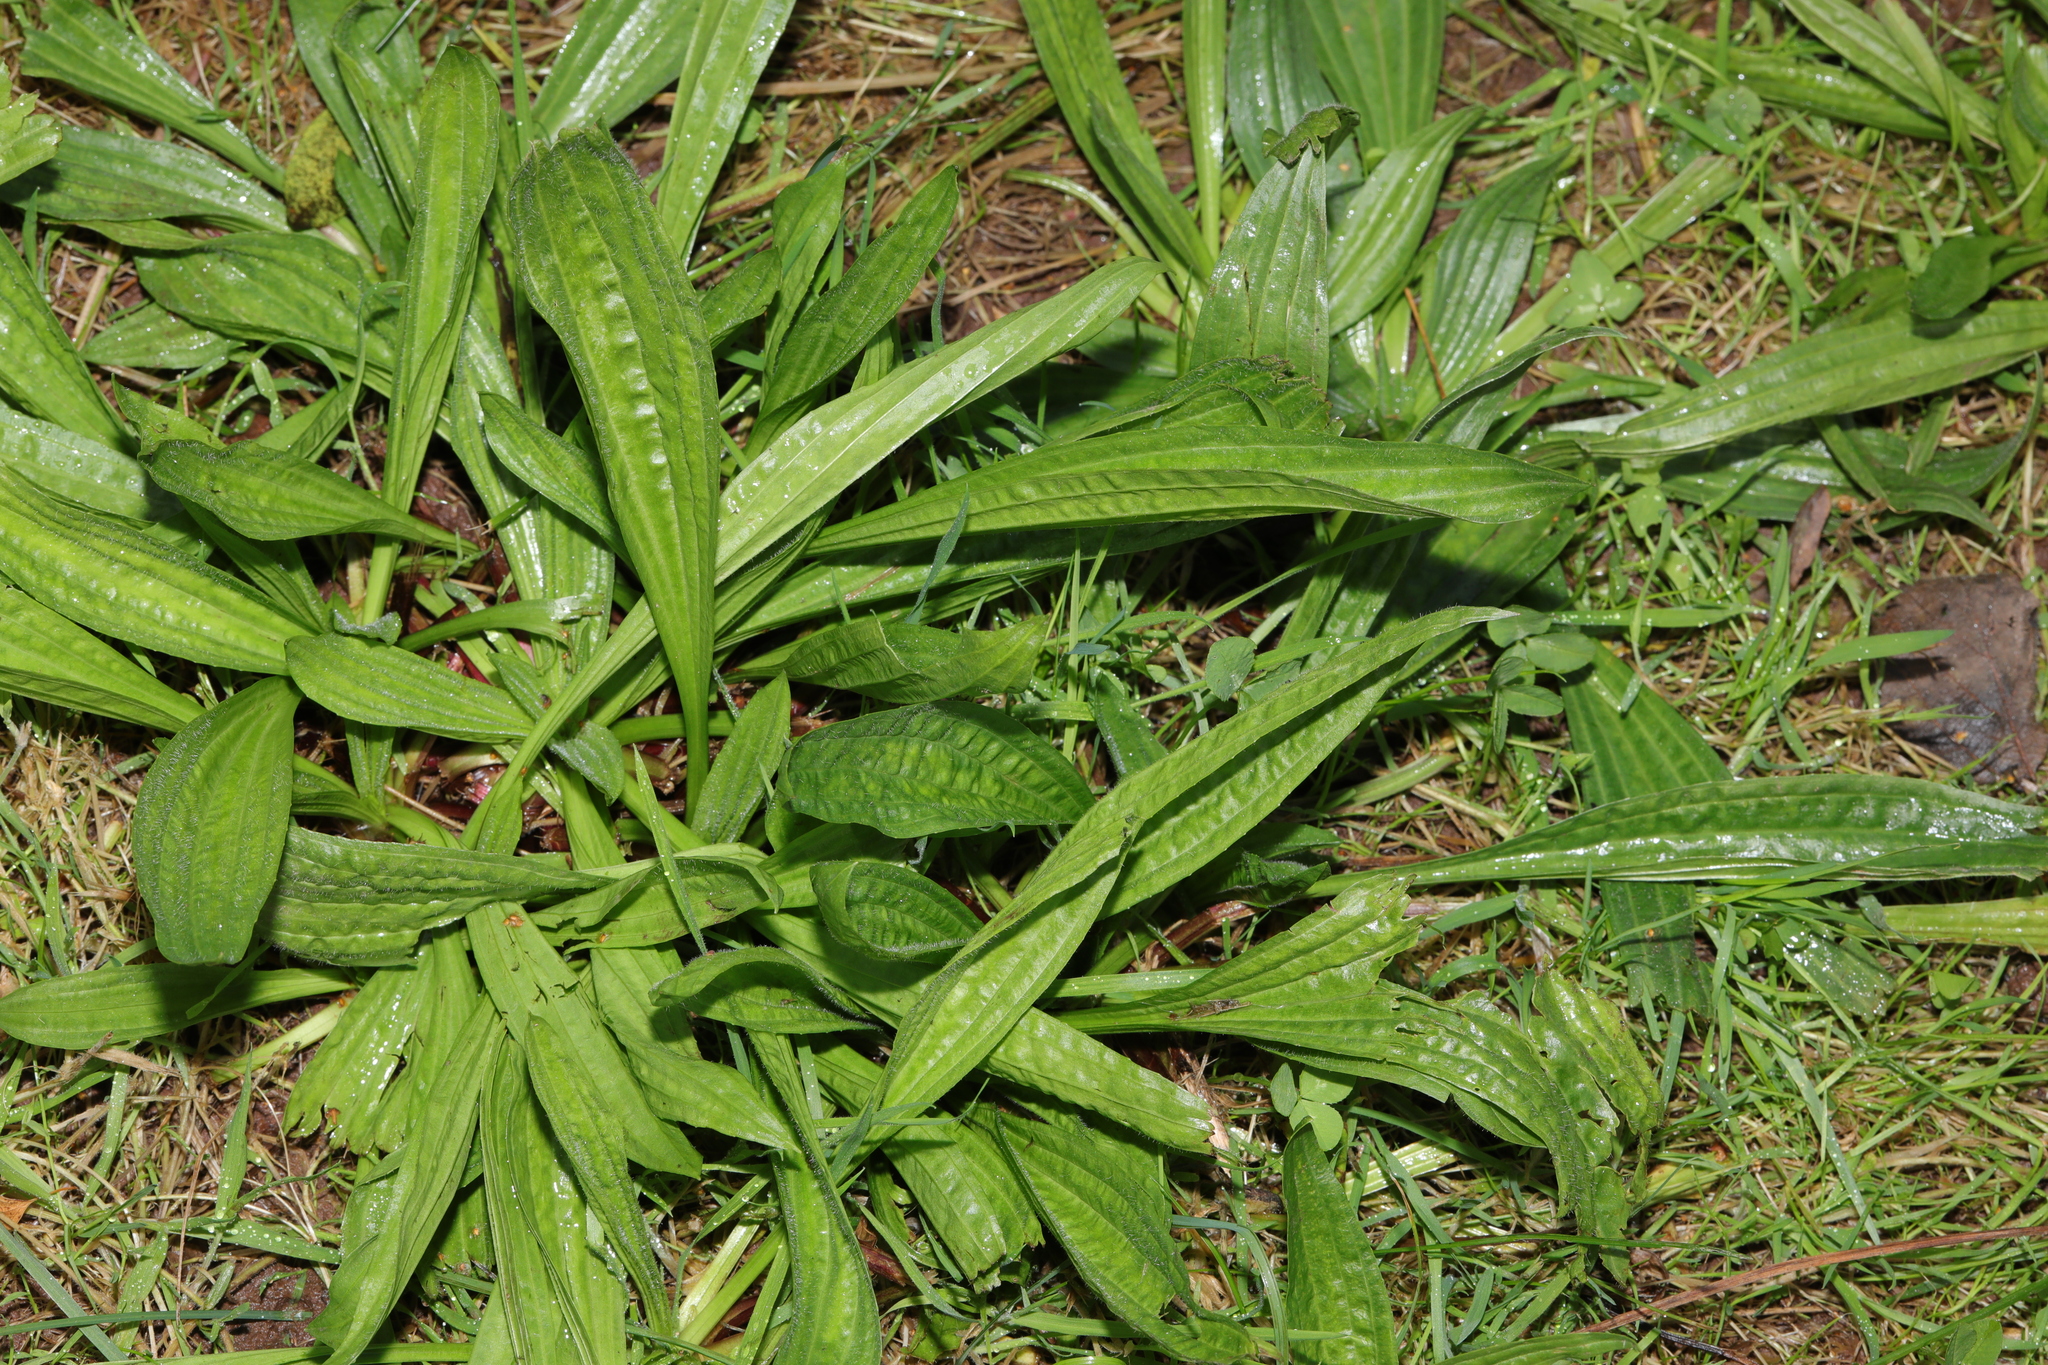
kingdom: Plantae
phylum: Tracheophyta
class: Magnoliopsida
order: Lamiales
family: Plantaginaceae
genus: Plantago
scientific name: Plantago lanceolata
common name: Ribwort plantain
